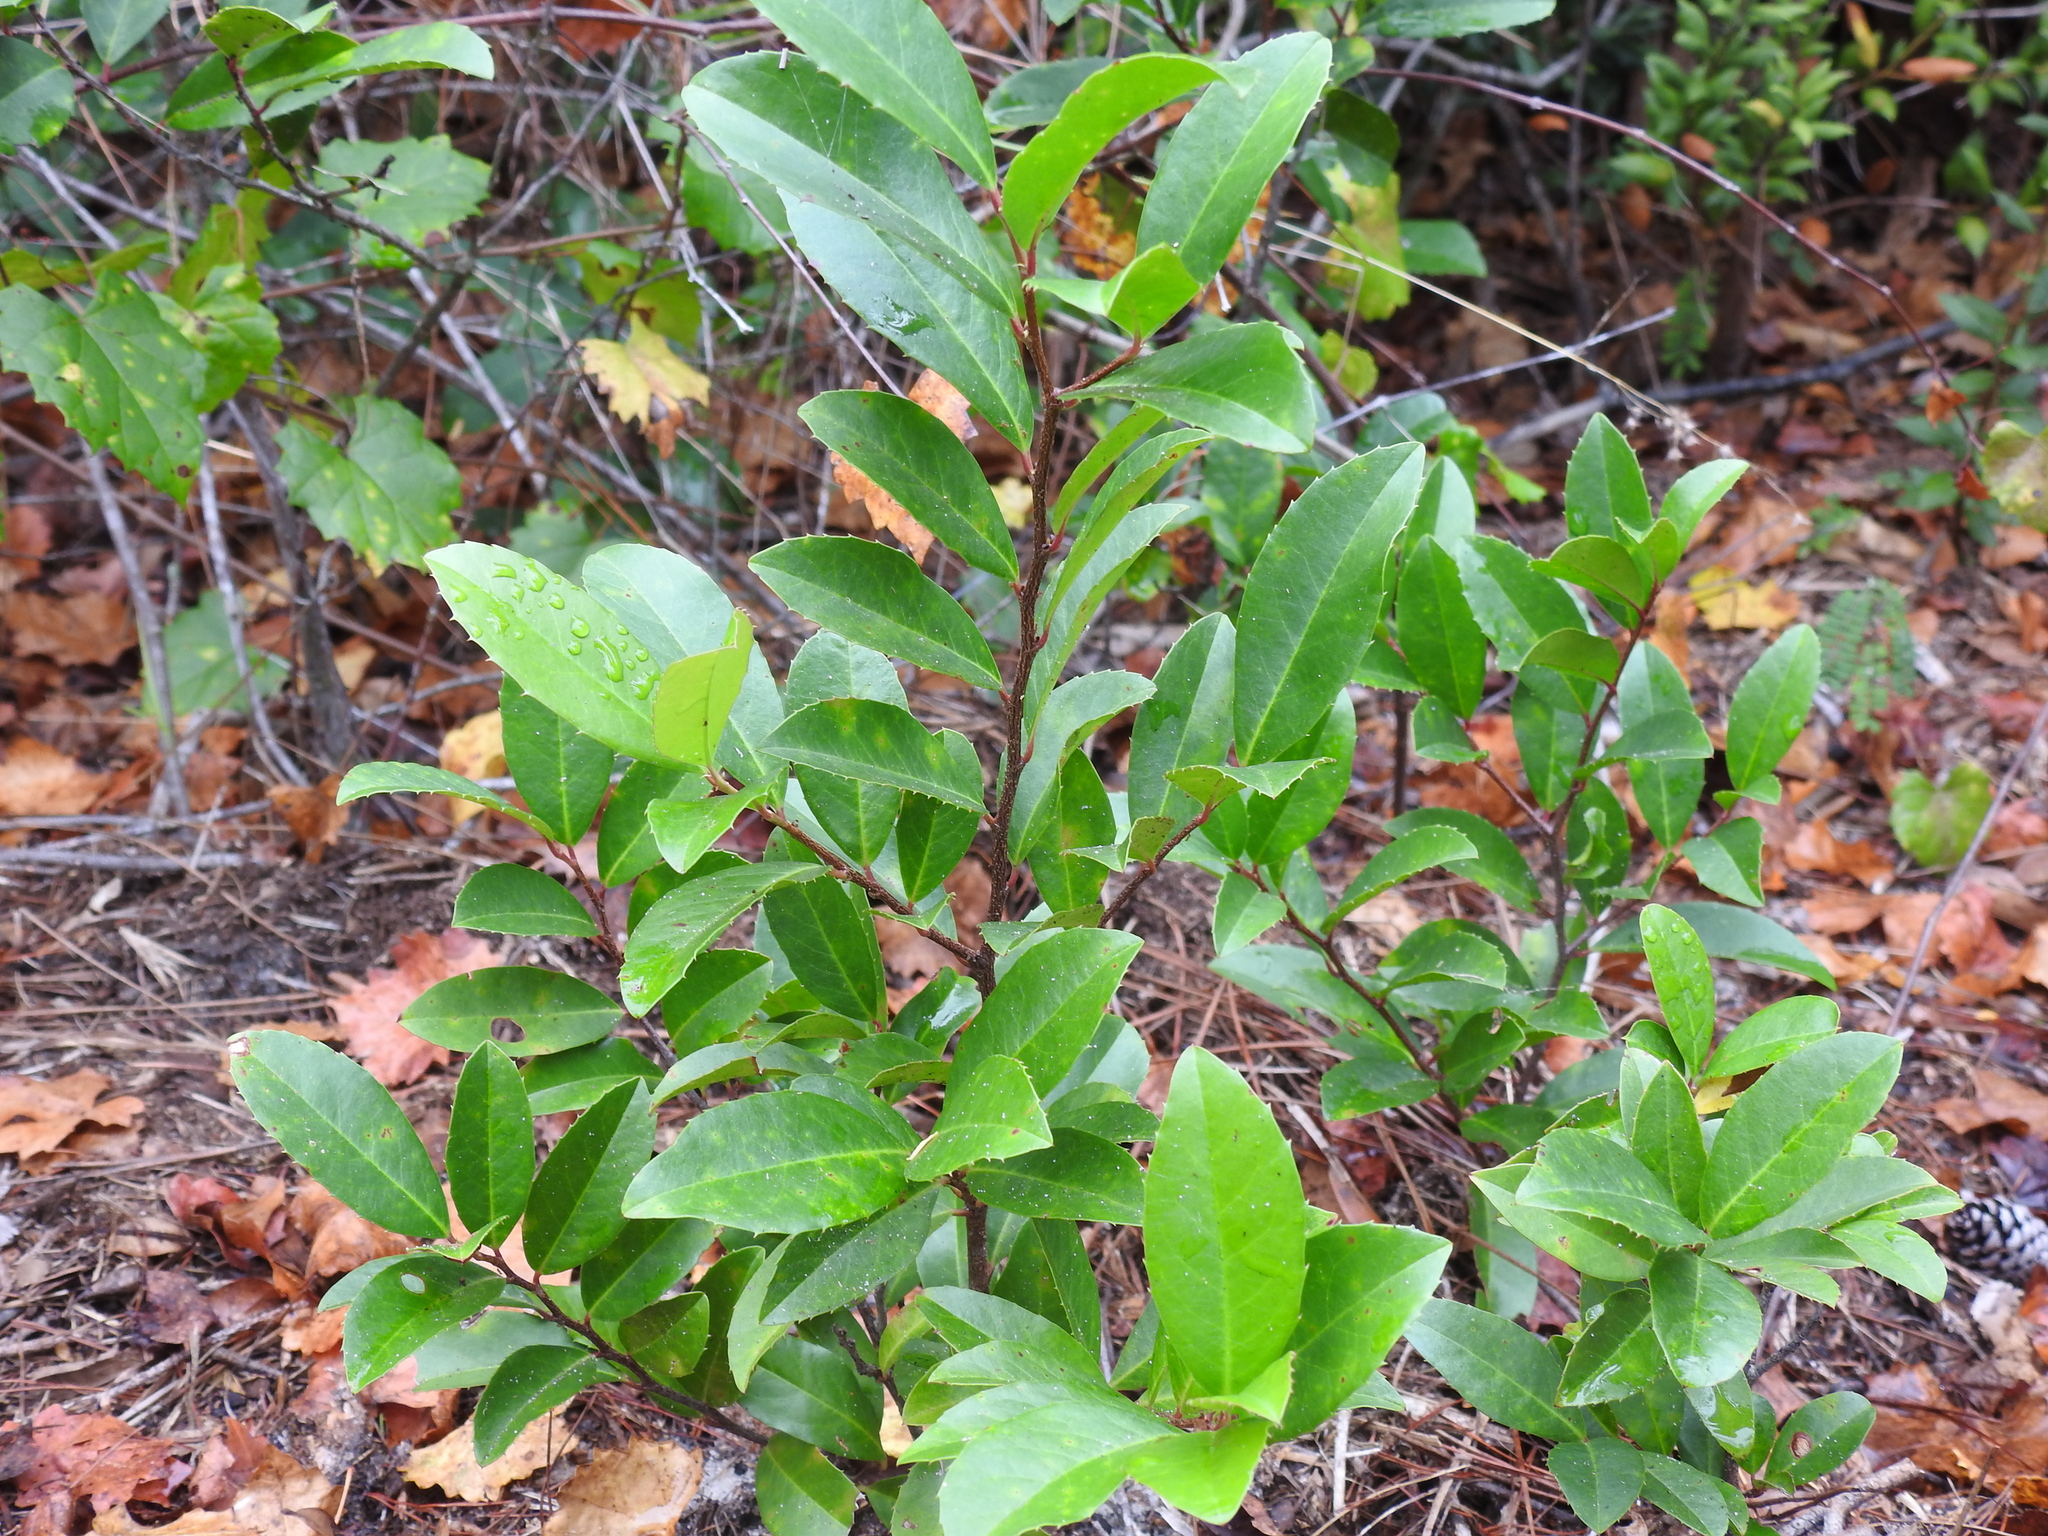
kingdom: Plantae
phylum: Tracheophyta
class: Magnoliopsida
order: Rosales
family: Rosaceae
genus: Prunus
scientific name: Prunus caroliniana
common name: Carolina laurel cherry
